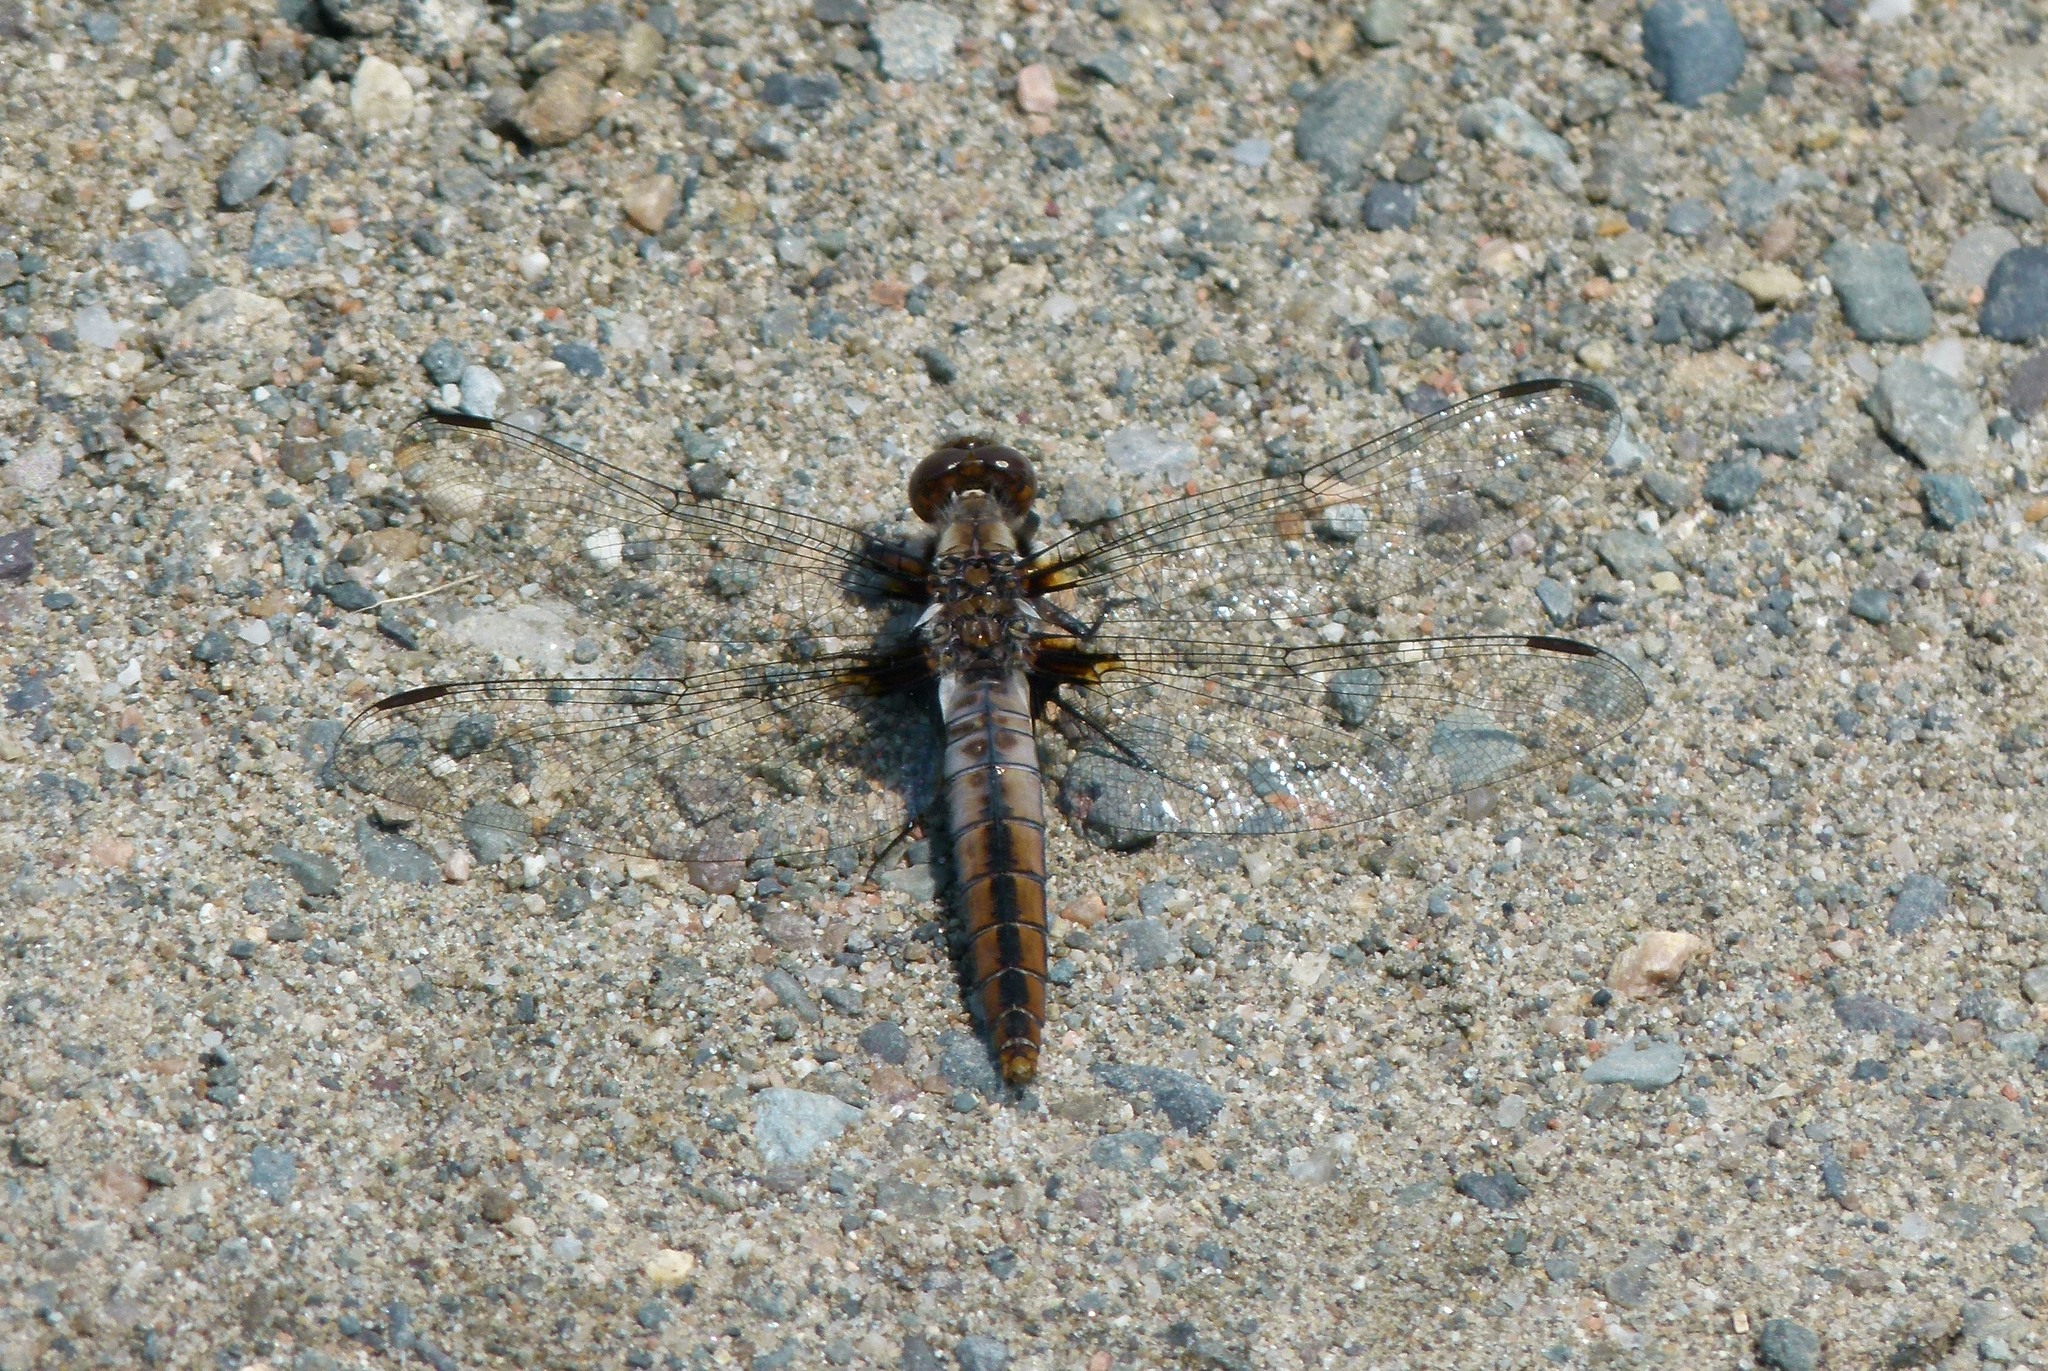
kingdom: Animalia
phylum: Arthropoda
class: Insecta
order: Odonata
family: Libellulidae
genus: Ladona
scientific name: Ladona julia
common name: Chalk-fronted corporal
